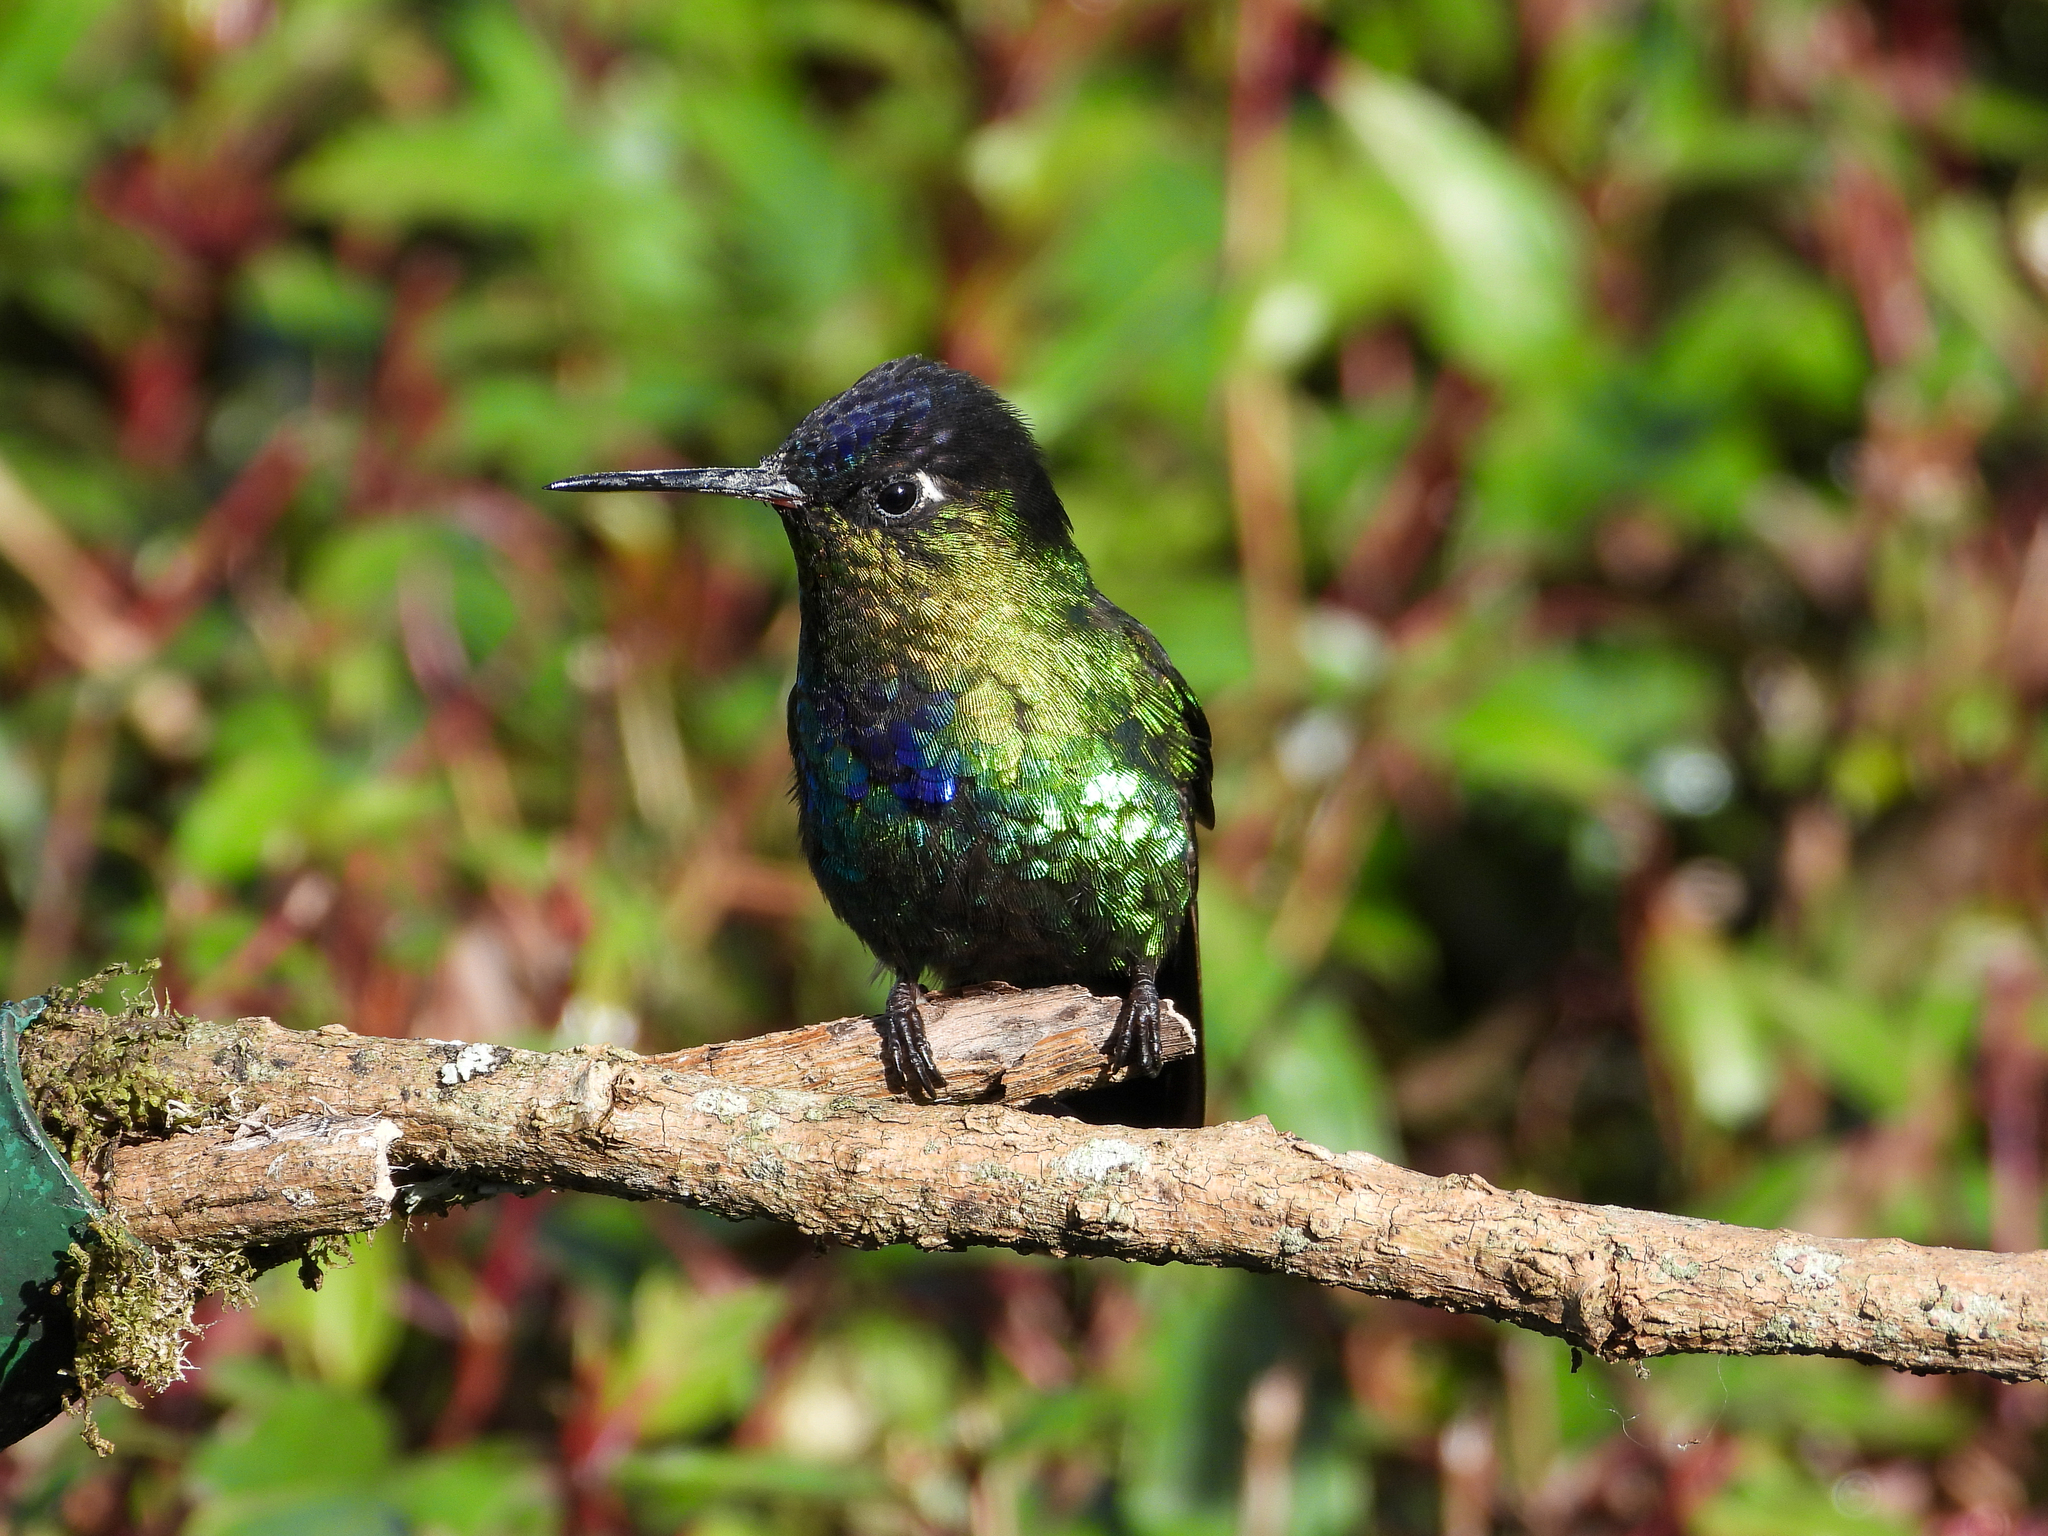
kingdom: Animalia
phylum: Chordata
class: Aves
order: Apodiformes
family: Trochilidae
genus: Panterpe
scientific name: Panterpe insignis
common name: Fiery-throated hummingbird
